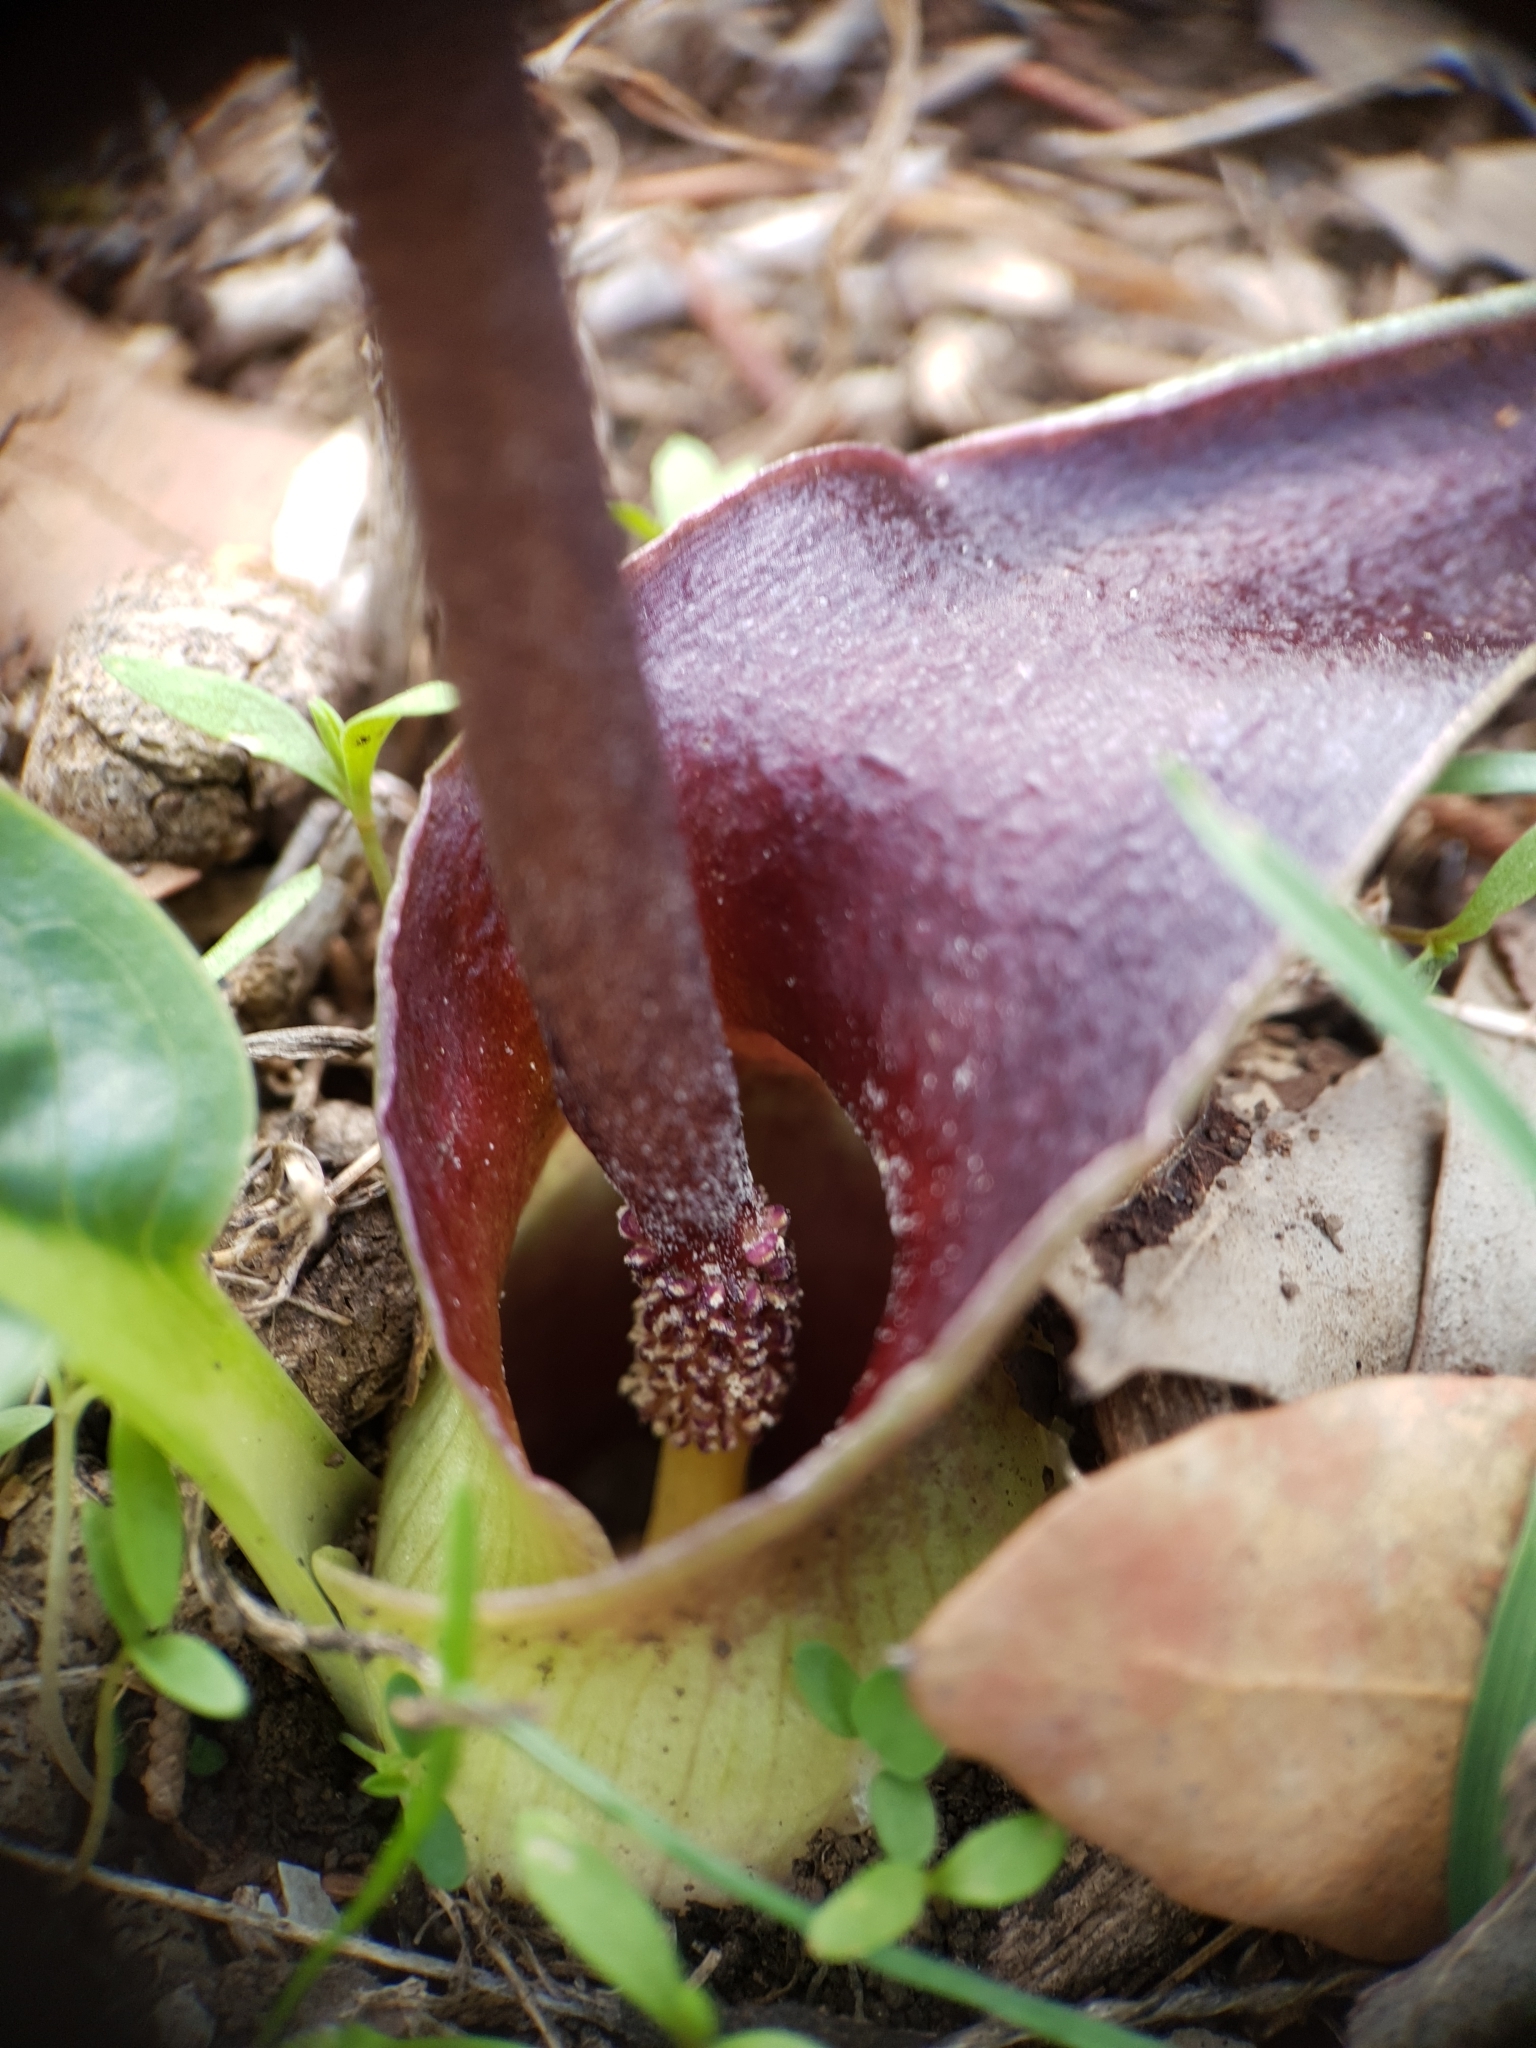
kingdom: Plantae
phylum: Tracheophyta
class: Liliopsida
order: Alismatales
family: Araceae
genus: Biarum
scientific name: Biarum dispar
